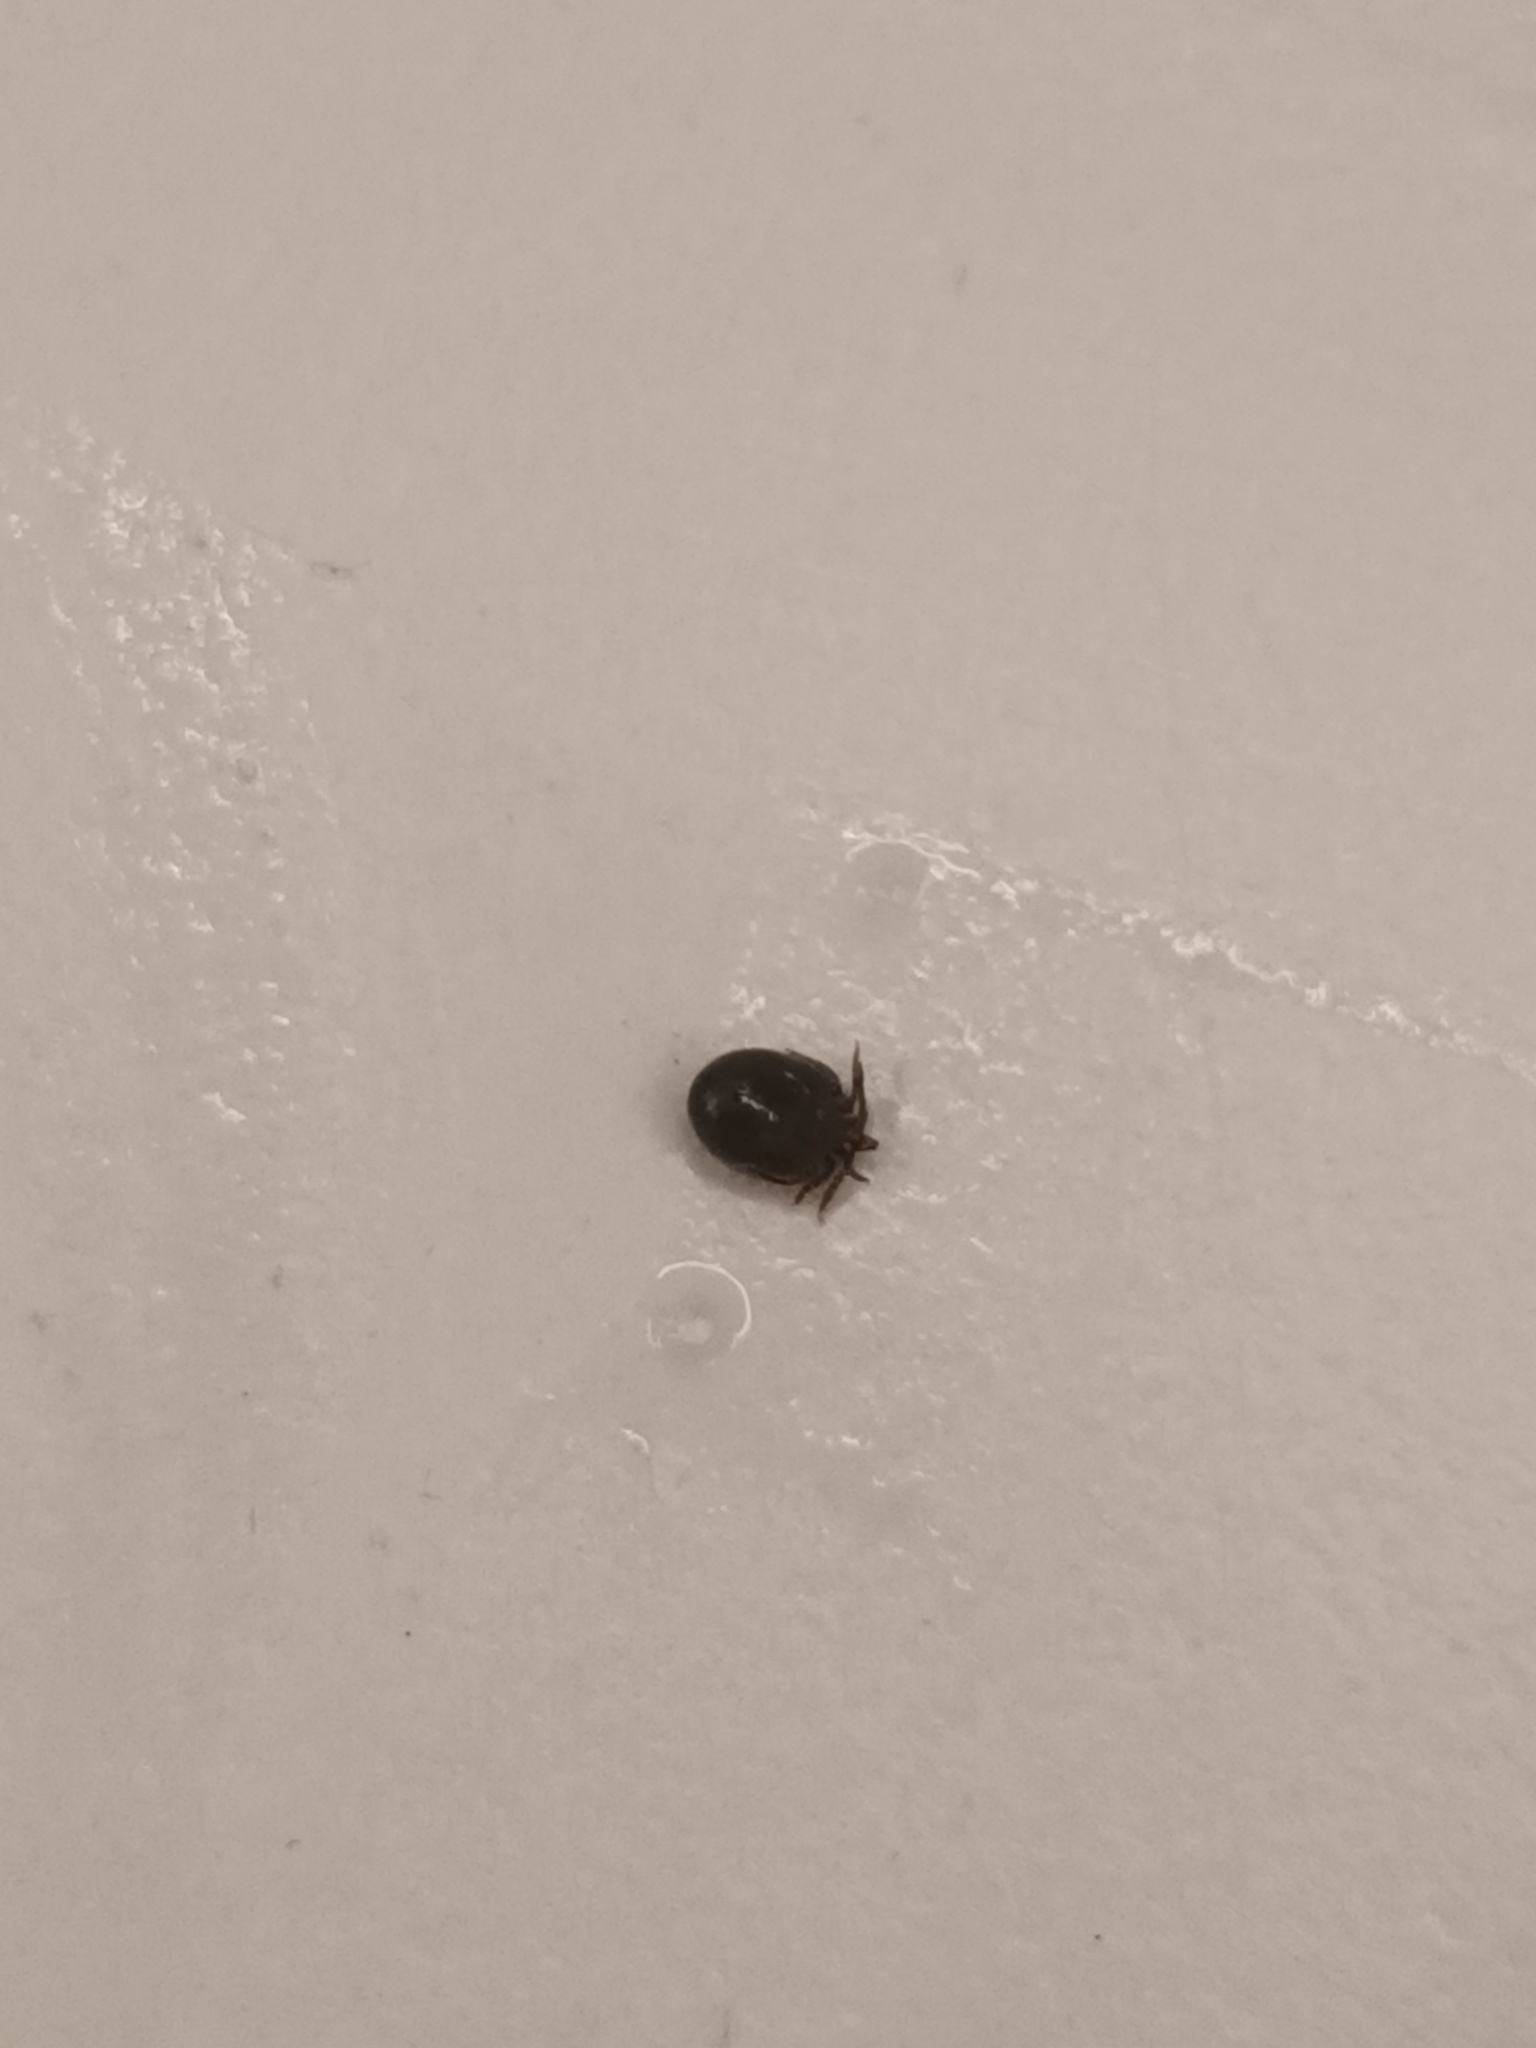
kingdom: Animalia
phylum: Arthropoda
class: Arachnida
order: Ixodida
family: Ixodidae
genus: Ixodes
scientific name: Ixodes ricinus
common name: Castor bean tick
